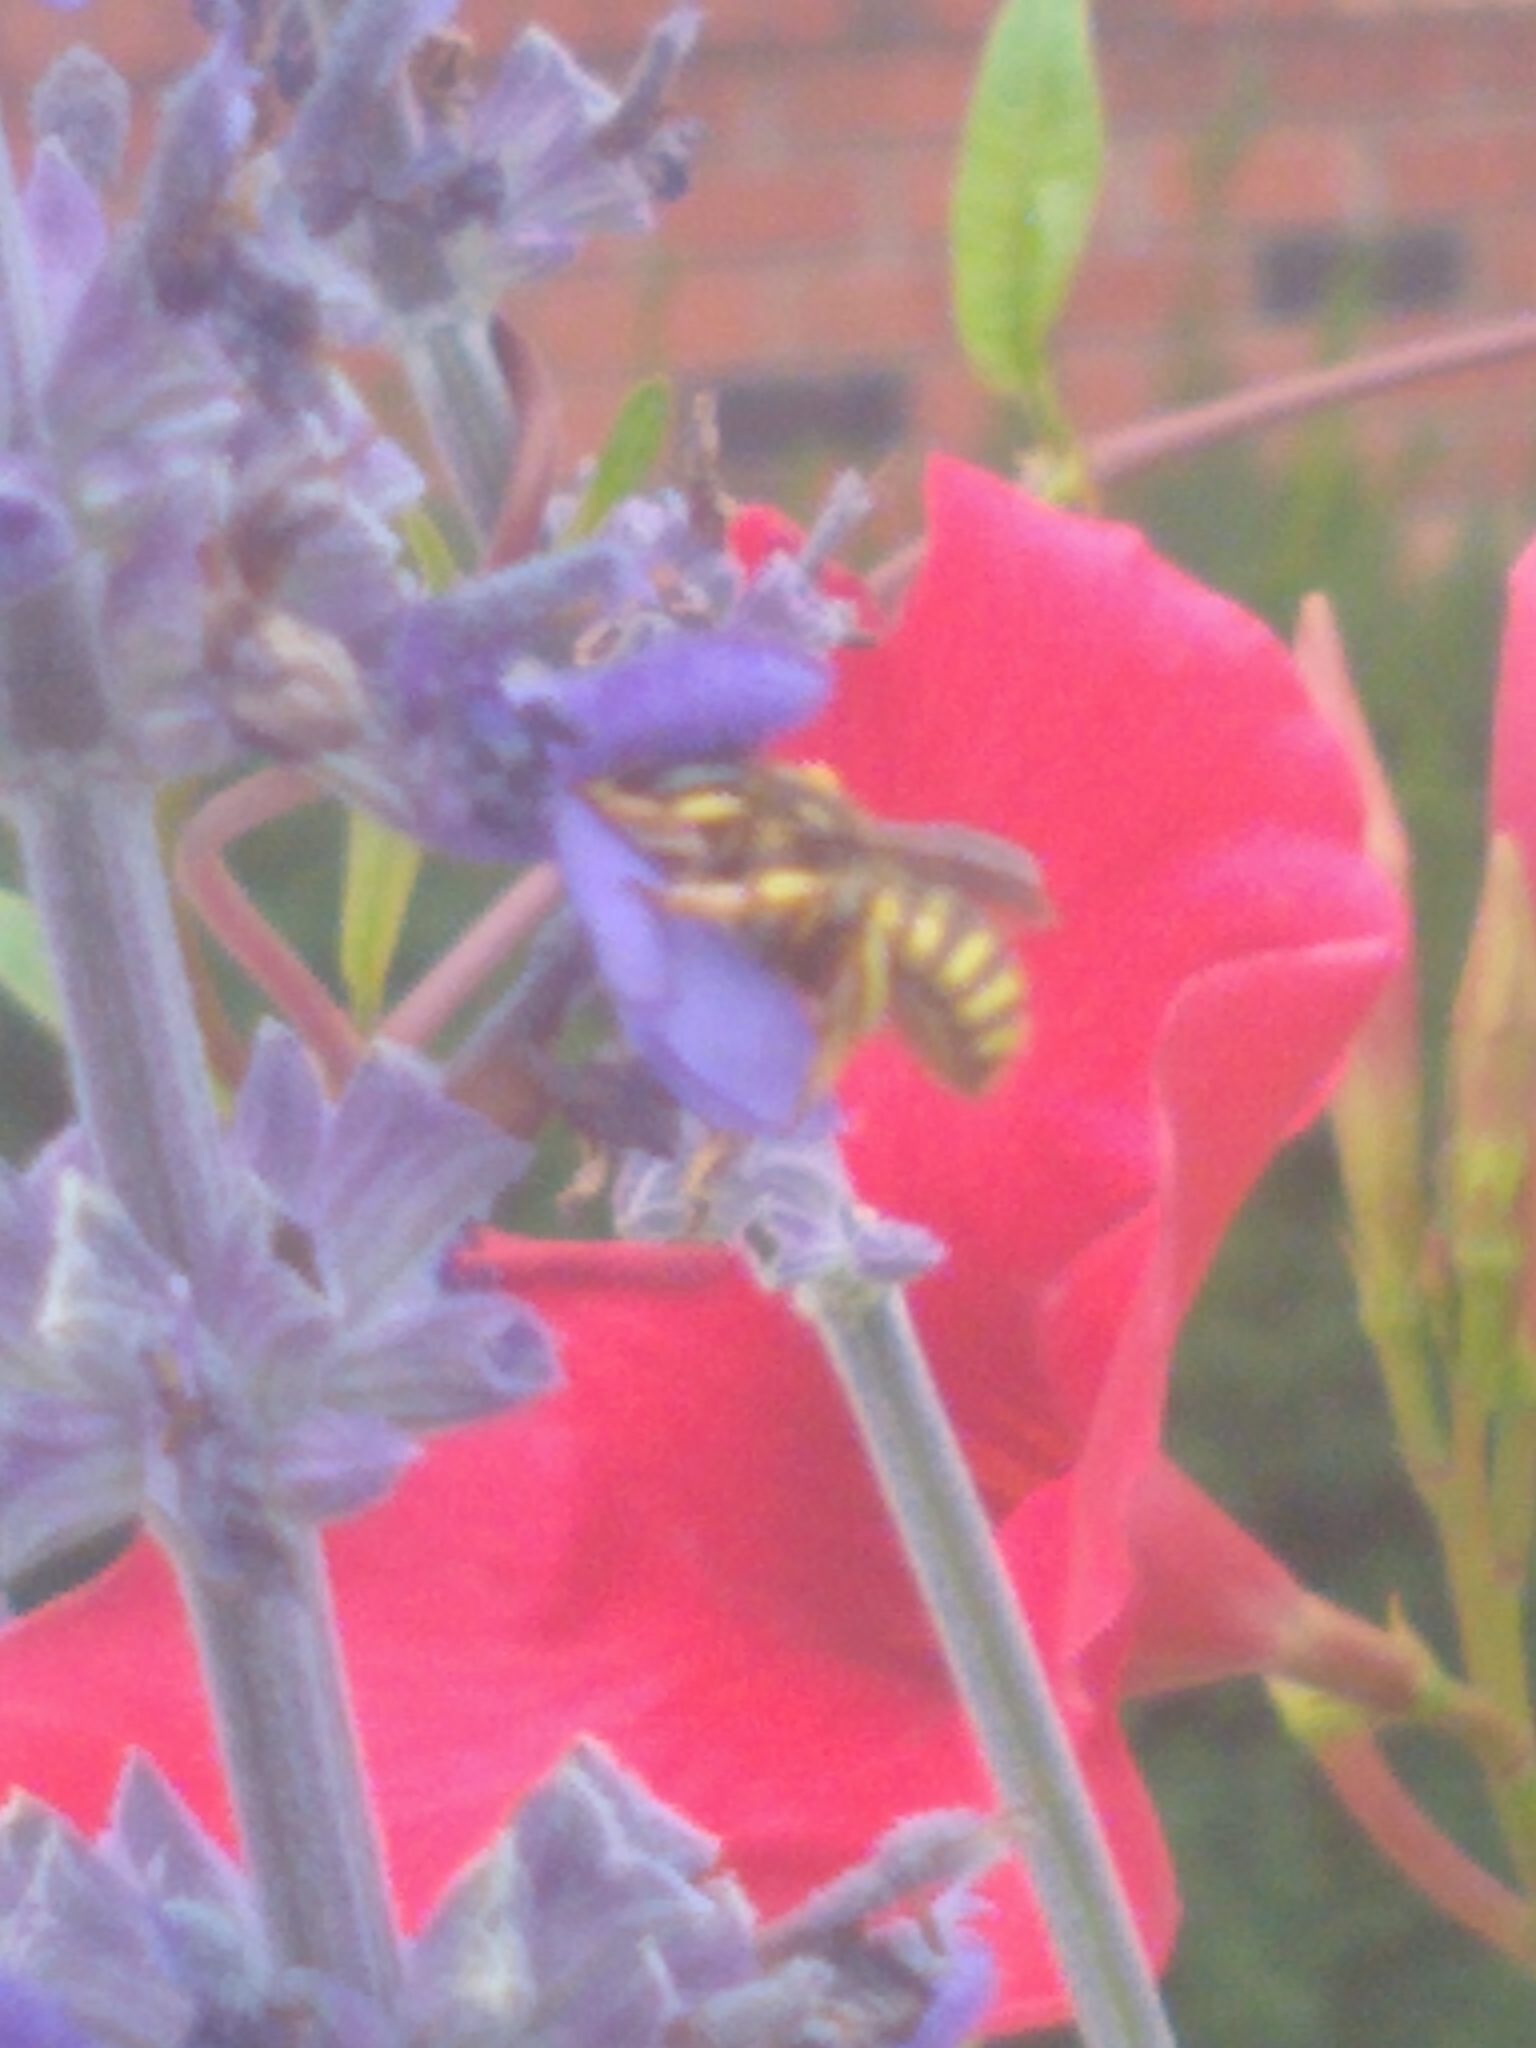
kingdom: Animalia
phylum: Arthropoda
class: Insecta
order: Hymenoptera
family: Megachilidae
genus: Anthidium
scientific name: Anthidium manicatum
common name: Wool carder bee
